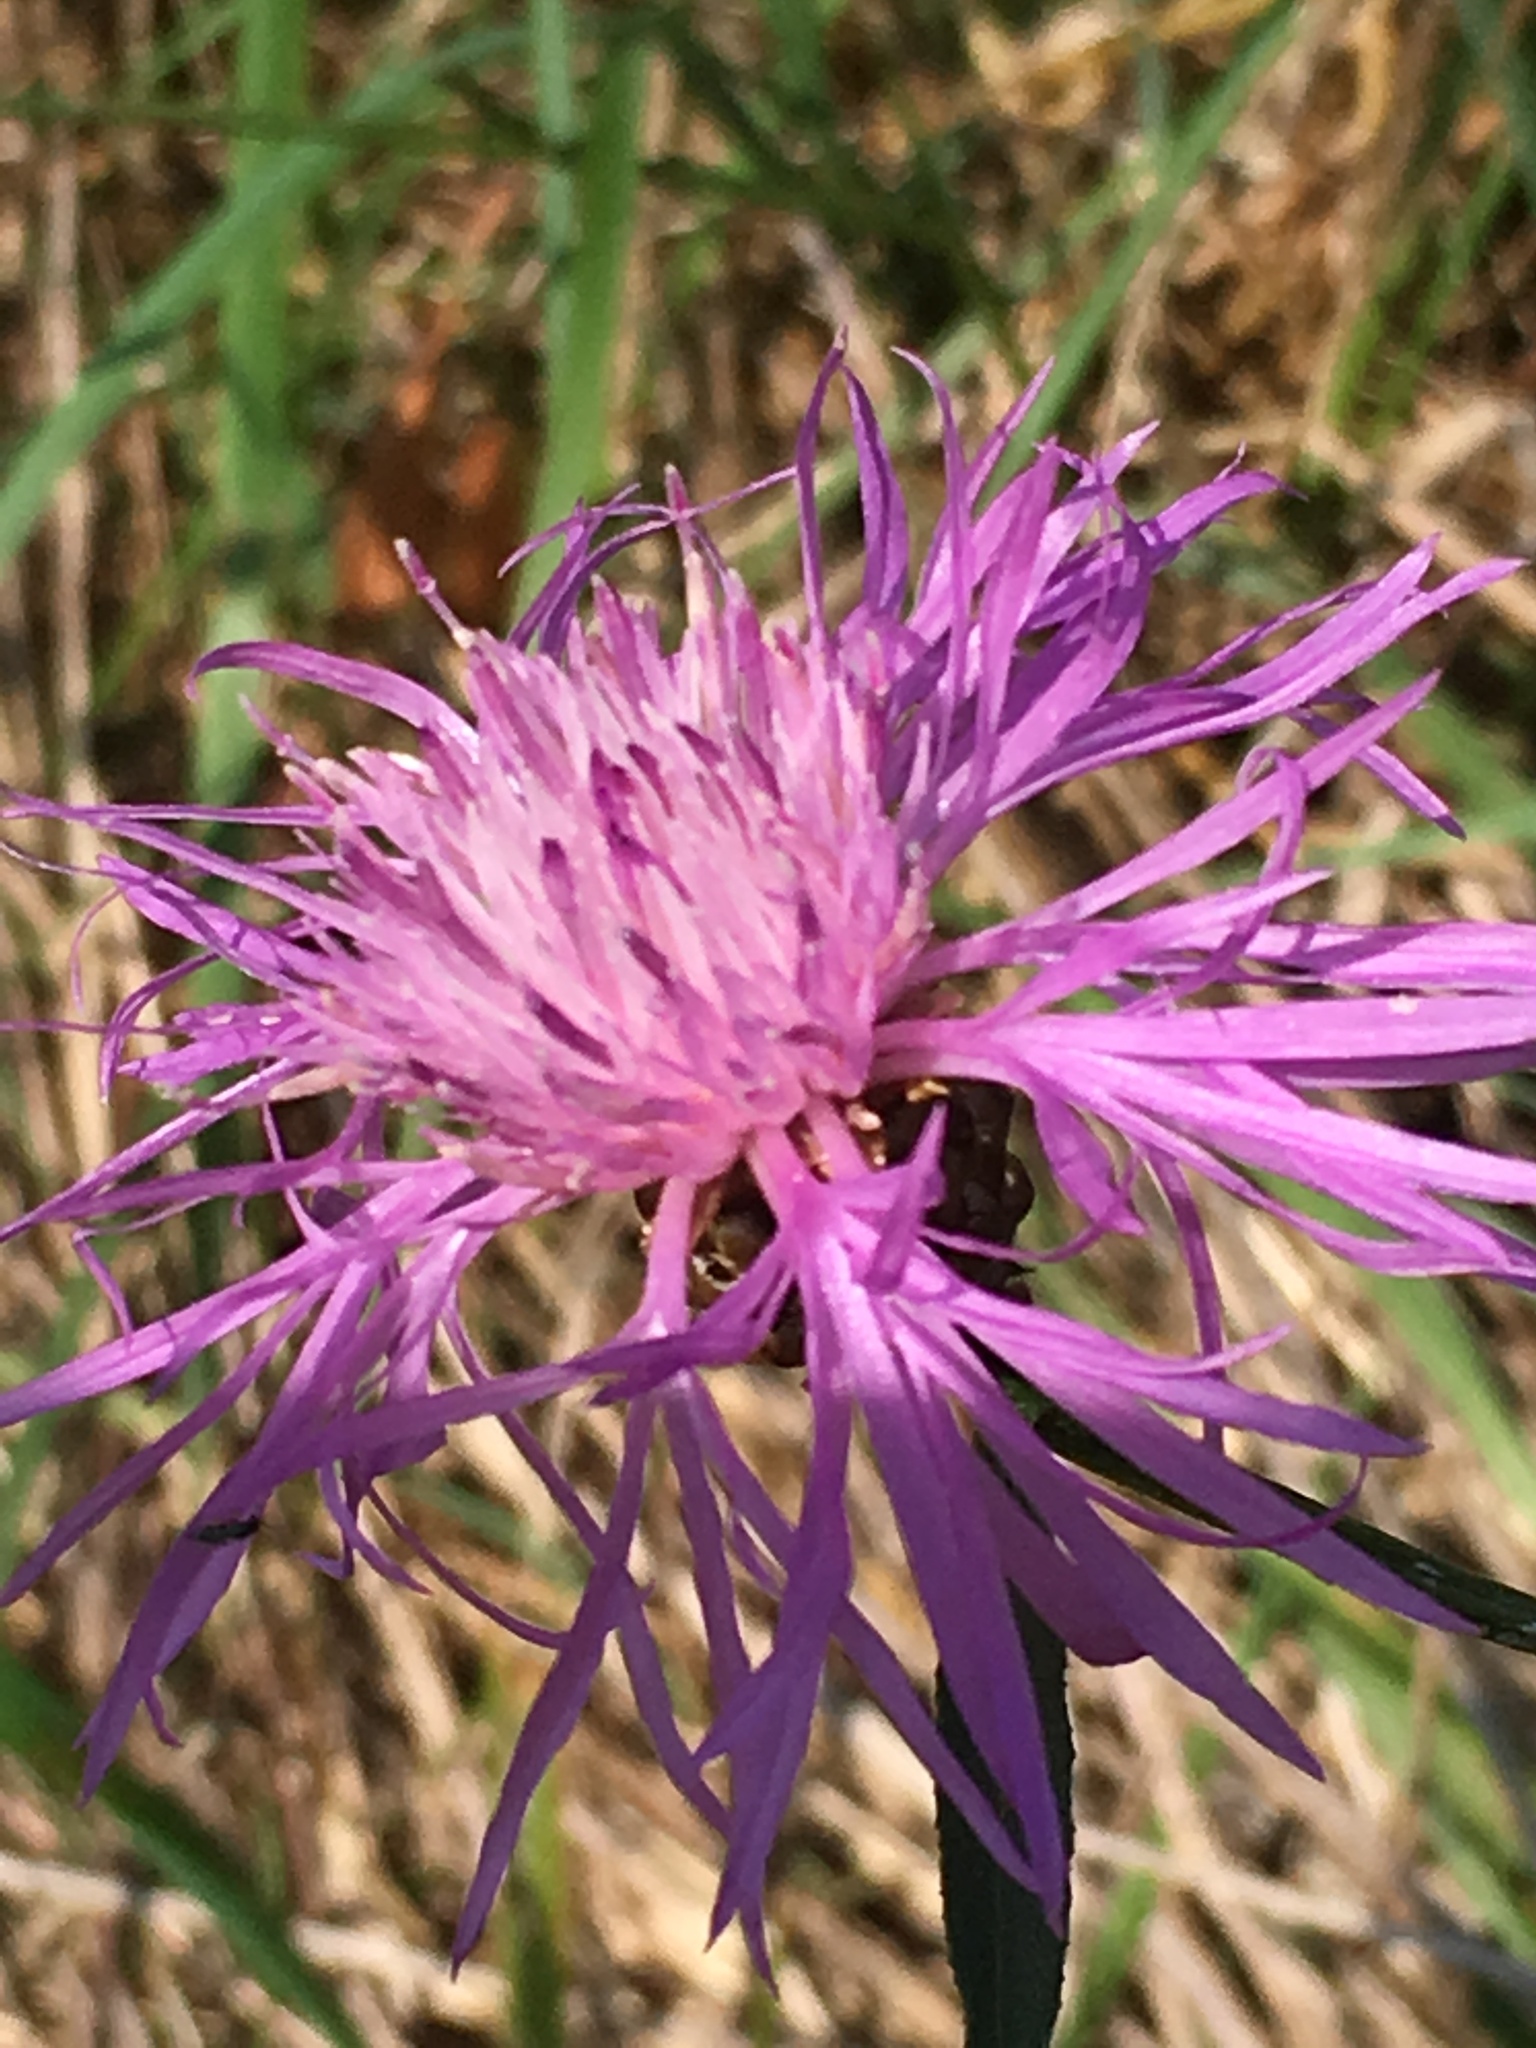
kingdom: Plantae
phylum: Tracheophyta
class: Magnoliopsida
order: Asterales
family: Asteraceae
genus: Centaurea
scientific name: Centaurea jacea
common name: Brown knapweed
